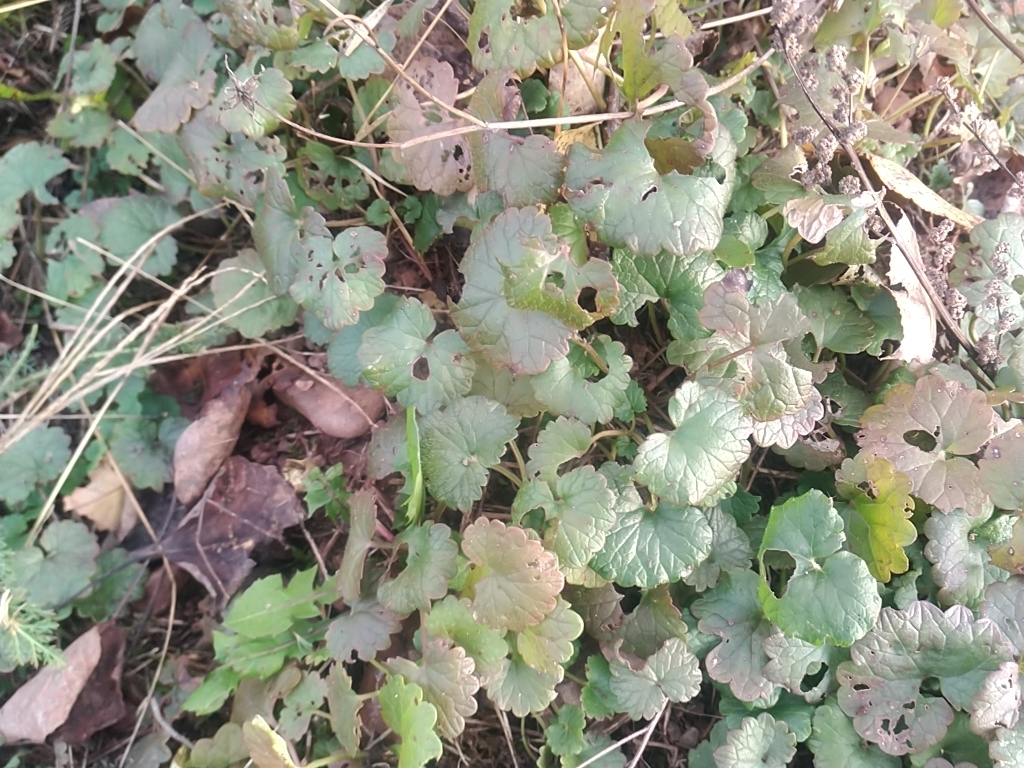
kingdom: Plantae
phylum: Tracheophyta
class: Magnoliopsida
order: Lamiales
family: Lamiaceae
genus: Glechoma
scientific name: Glechoma hederacea
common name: Ground ivy
